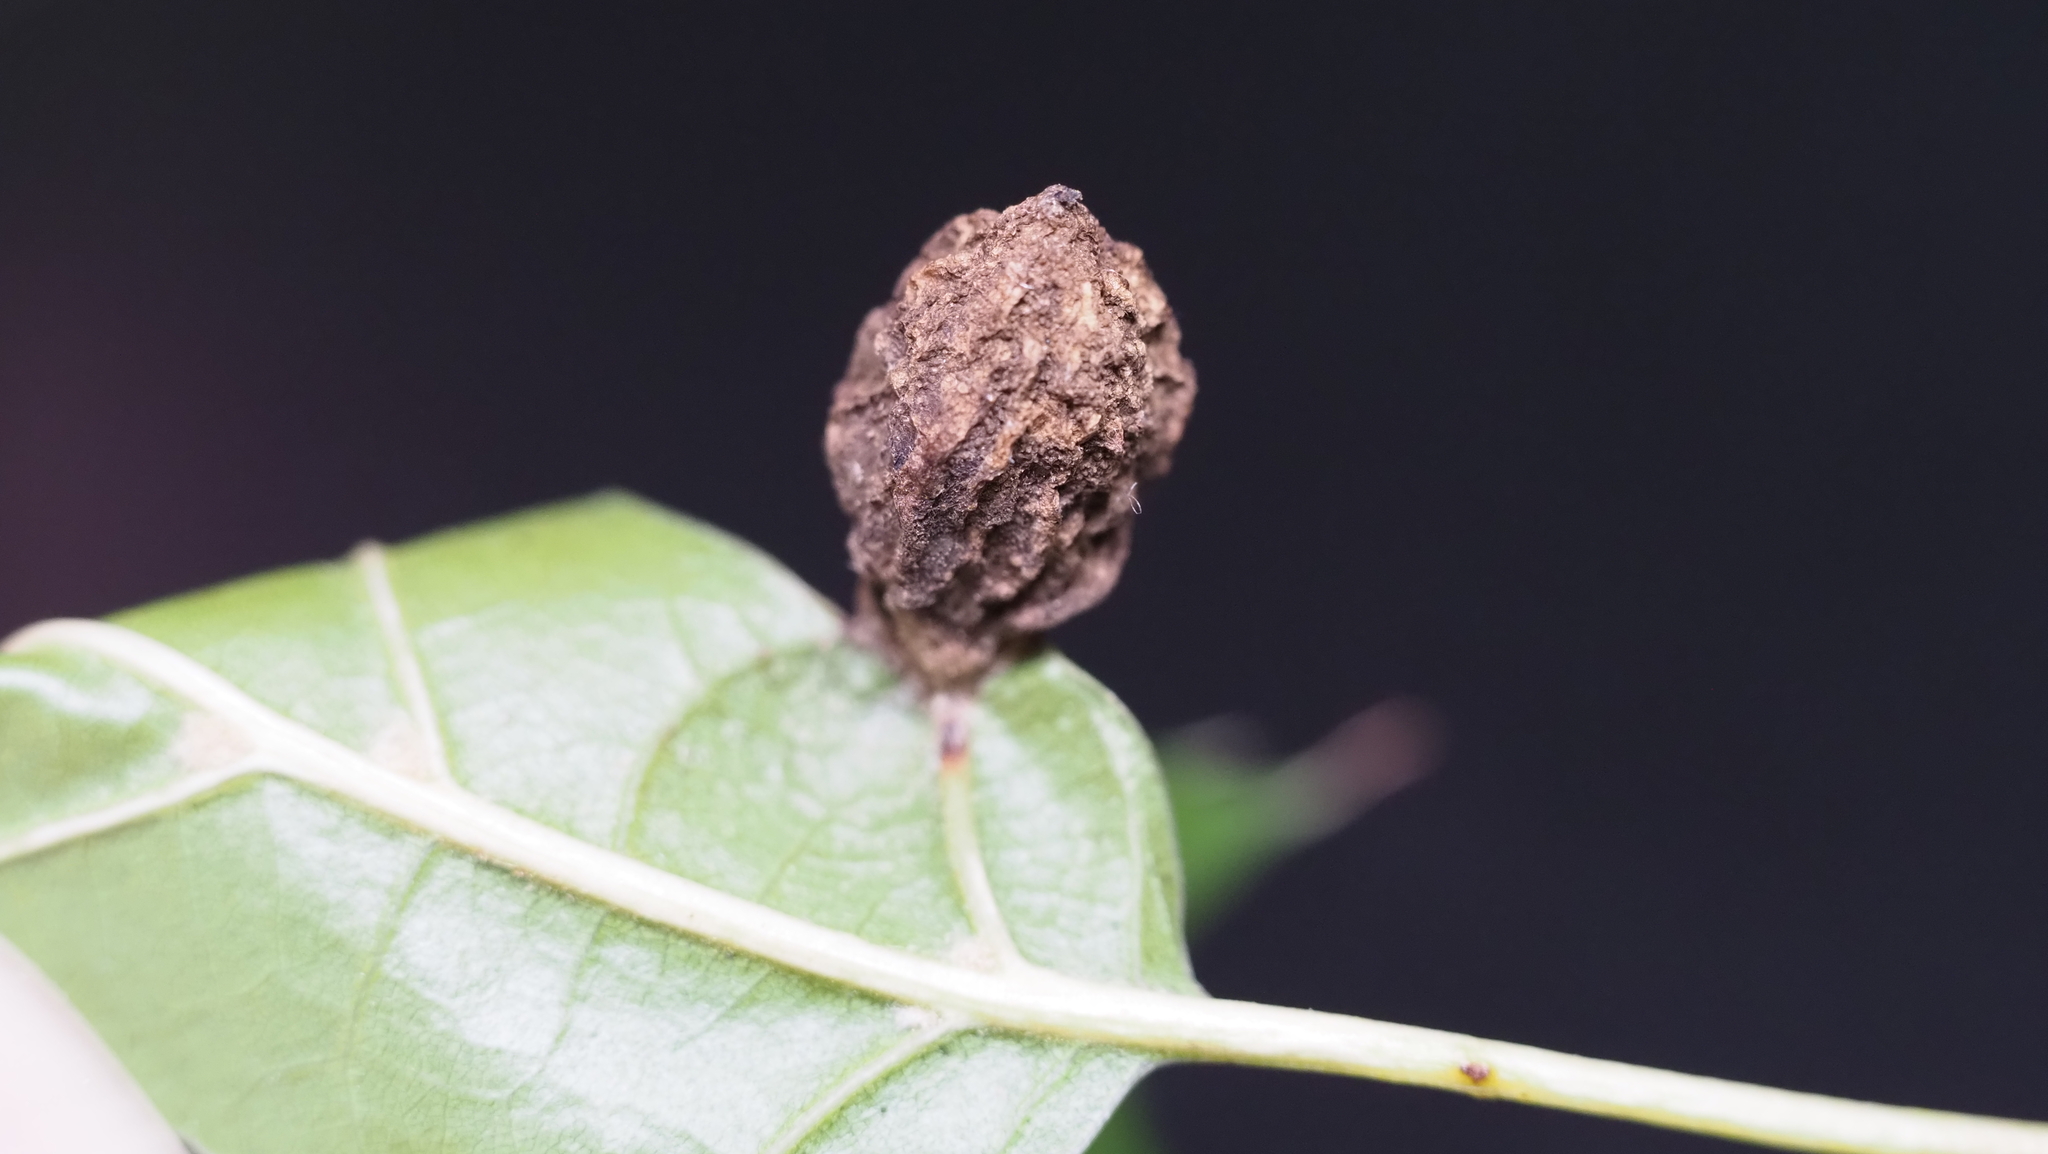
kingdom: Animalia
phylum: Arthropoda
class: Insecta
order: Hymenoptera
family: Cynipidae
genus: Dryocosmus
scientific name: Dryocosmus quercuspalustris
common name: Succulent oak gall wasp
